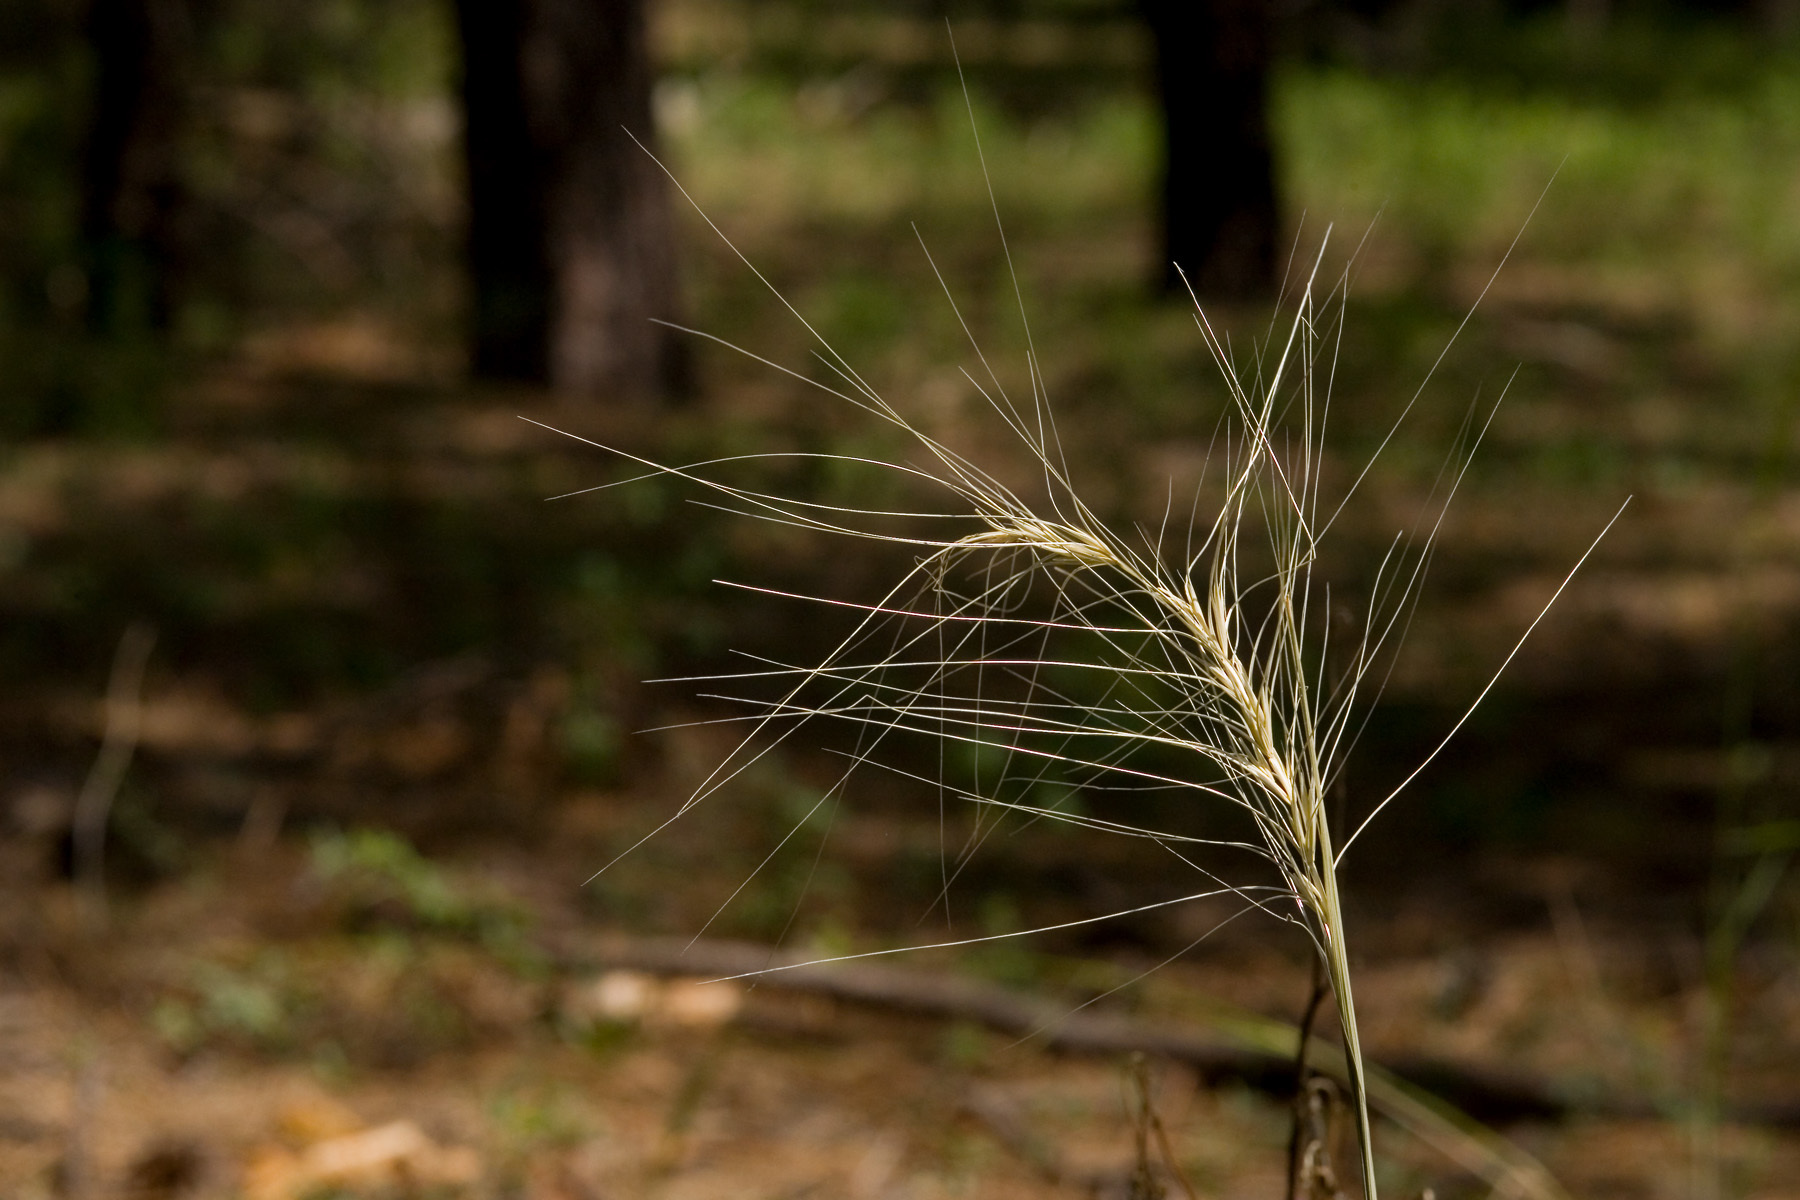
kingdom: Plantae
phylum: Tracheophyta
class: Liliopsida
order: Poales
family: Poaceae
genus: Elymus
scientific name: Elymus longifolius
